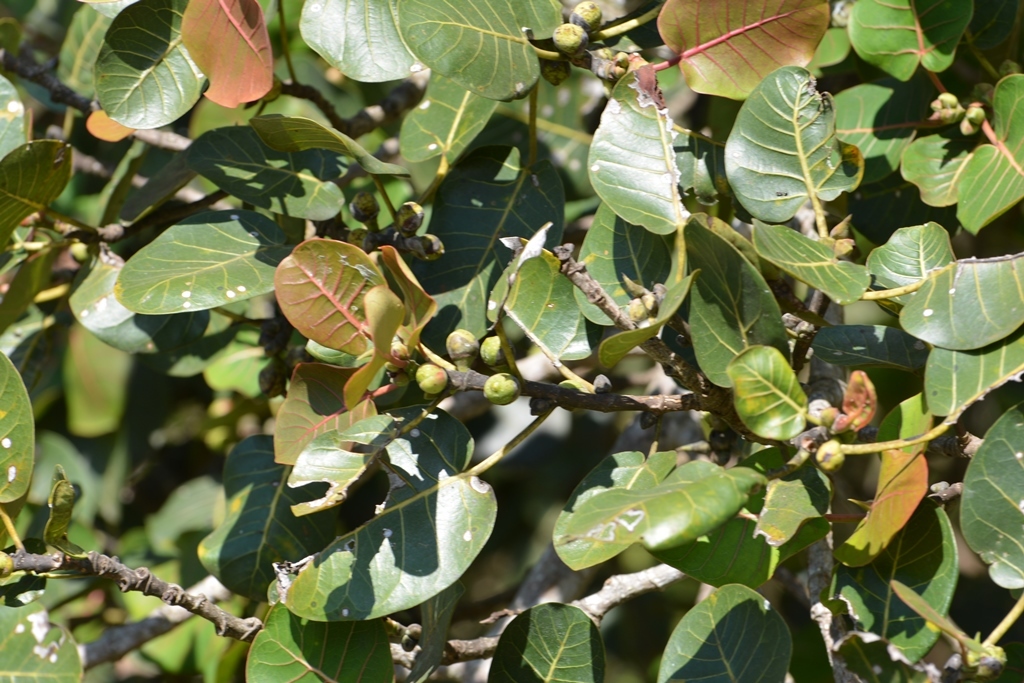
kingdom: Plantae
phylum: Tracheophyta
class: Magnoliopsida
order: Rosales
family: Moraceae
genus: Ficus
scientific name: Ficus aurea
